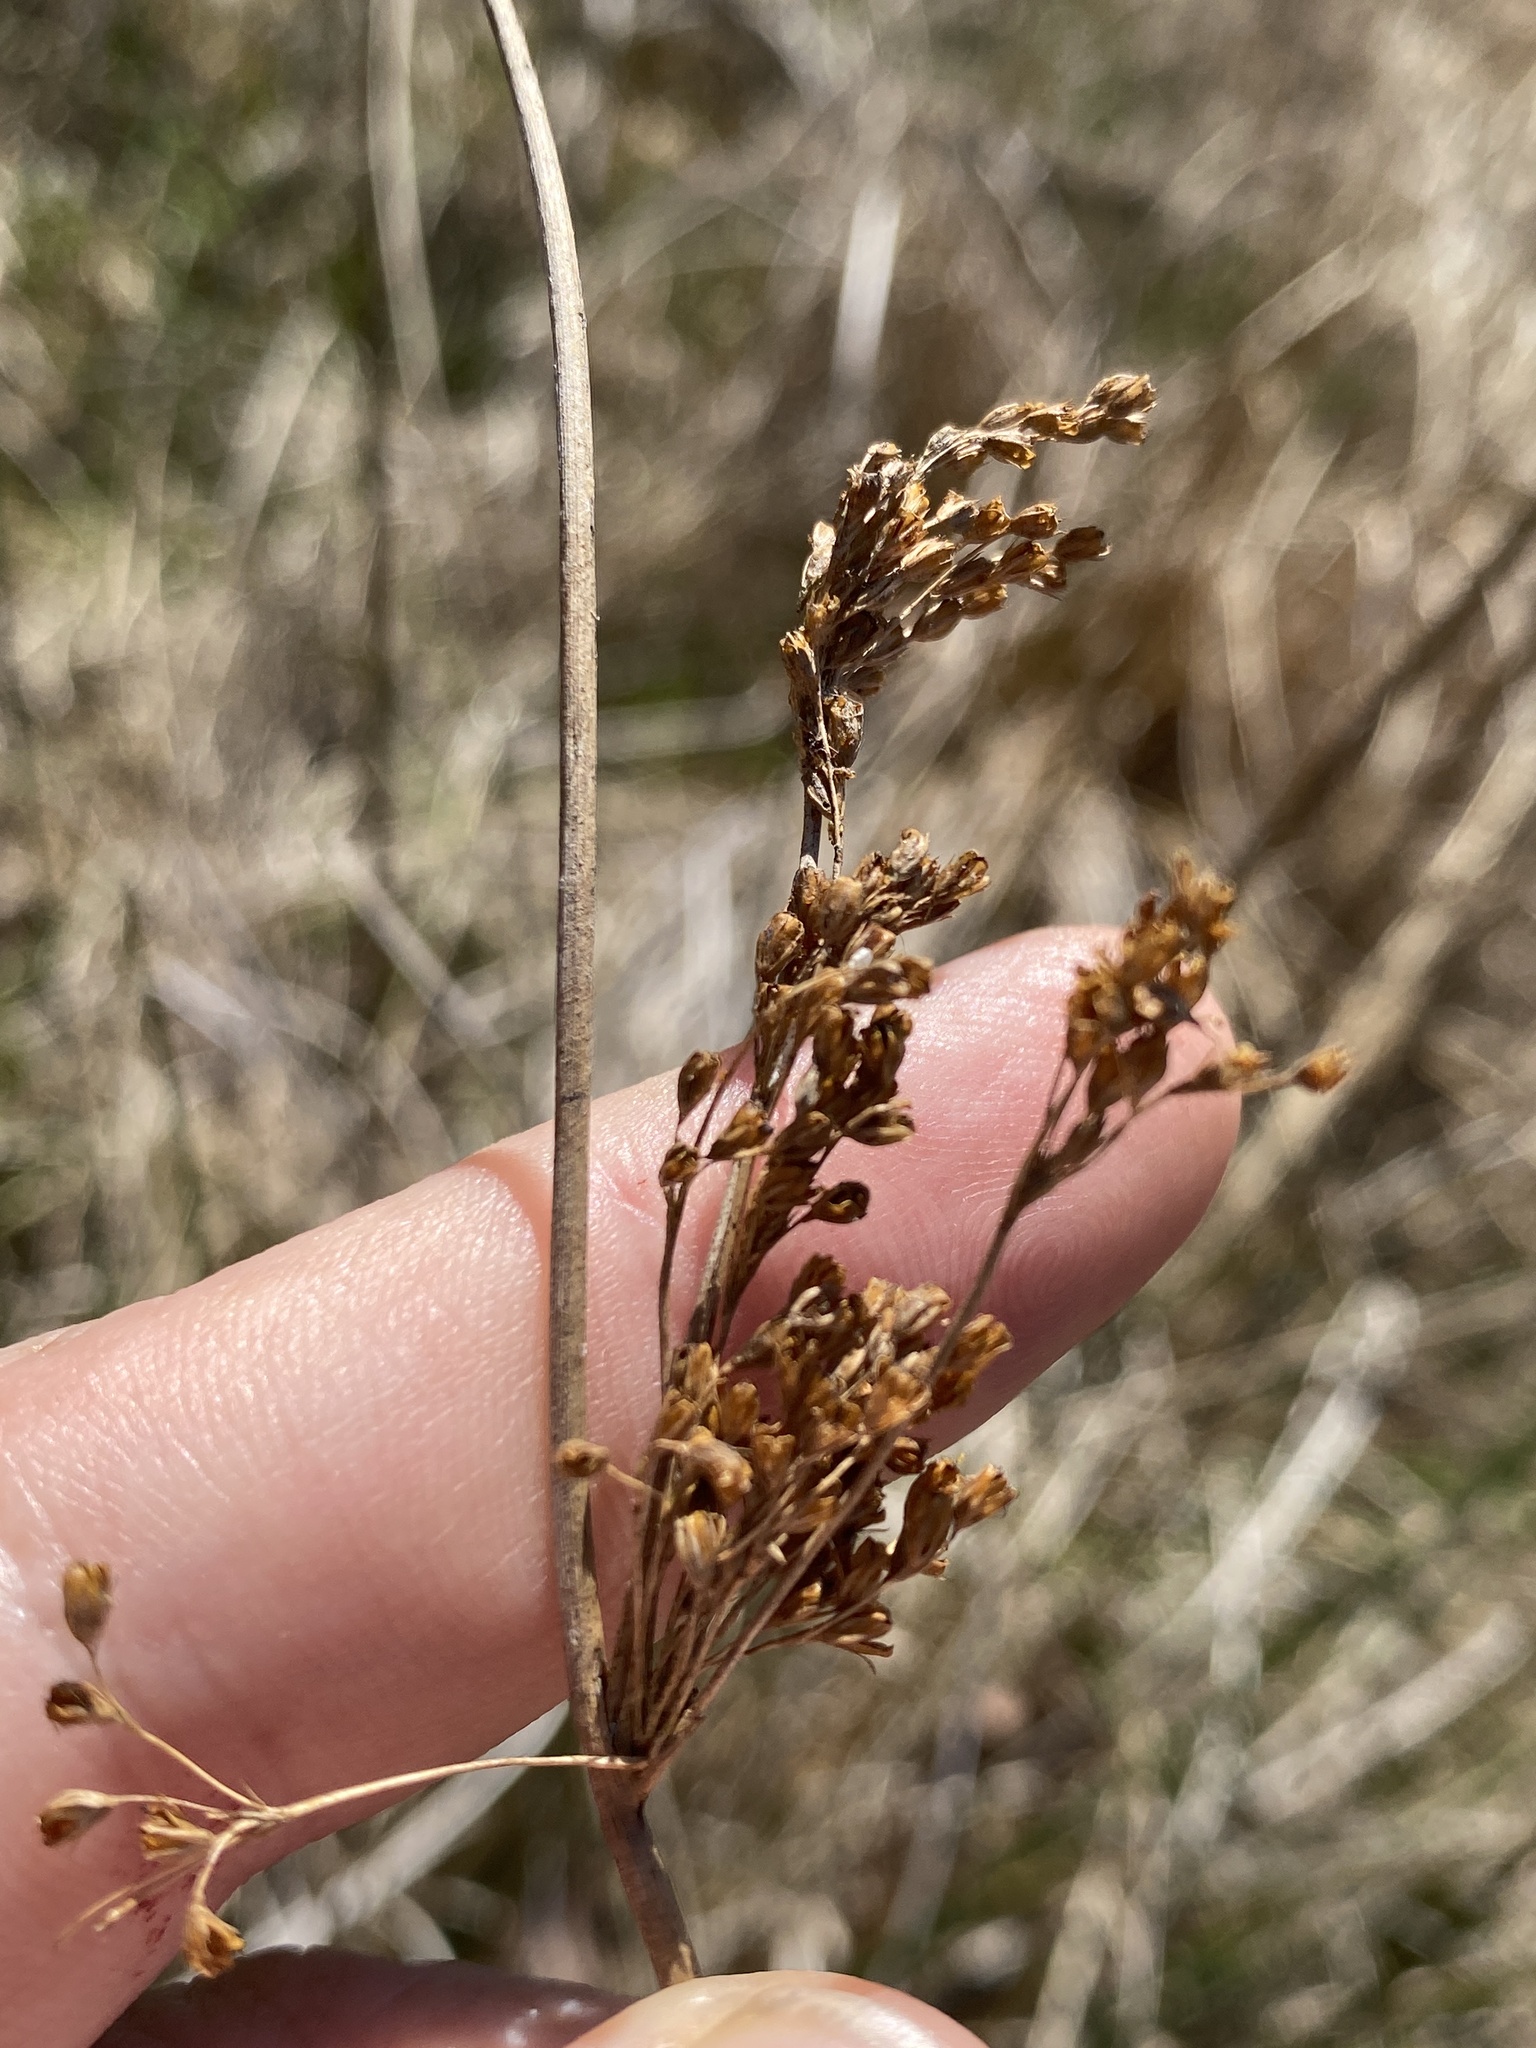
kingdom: Plantae
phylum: Tracheophyta
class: Liliopsida
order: Poales
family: Juncaceae
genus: Juncus
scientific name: Juncus effusus
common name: Soft rush
